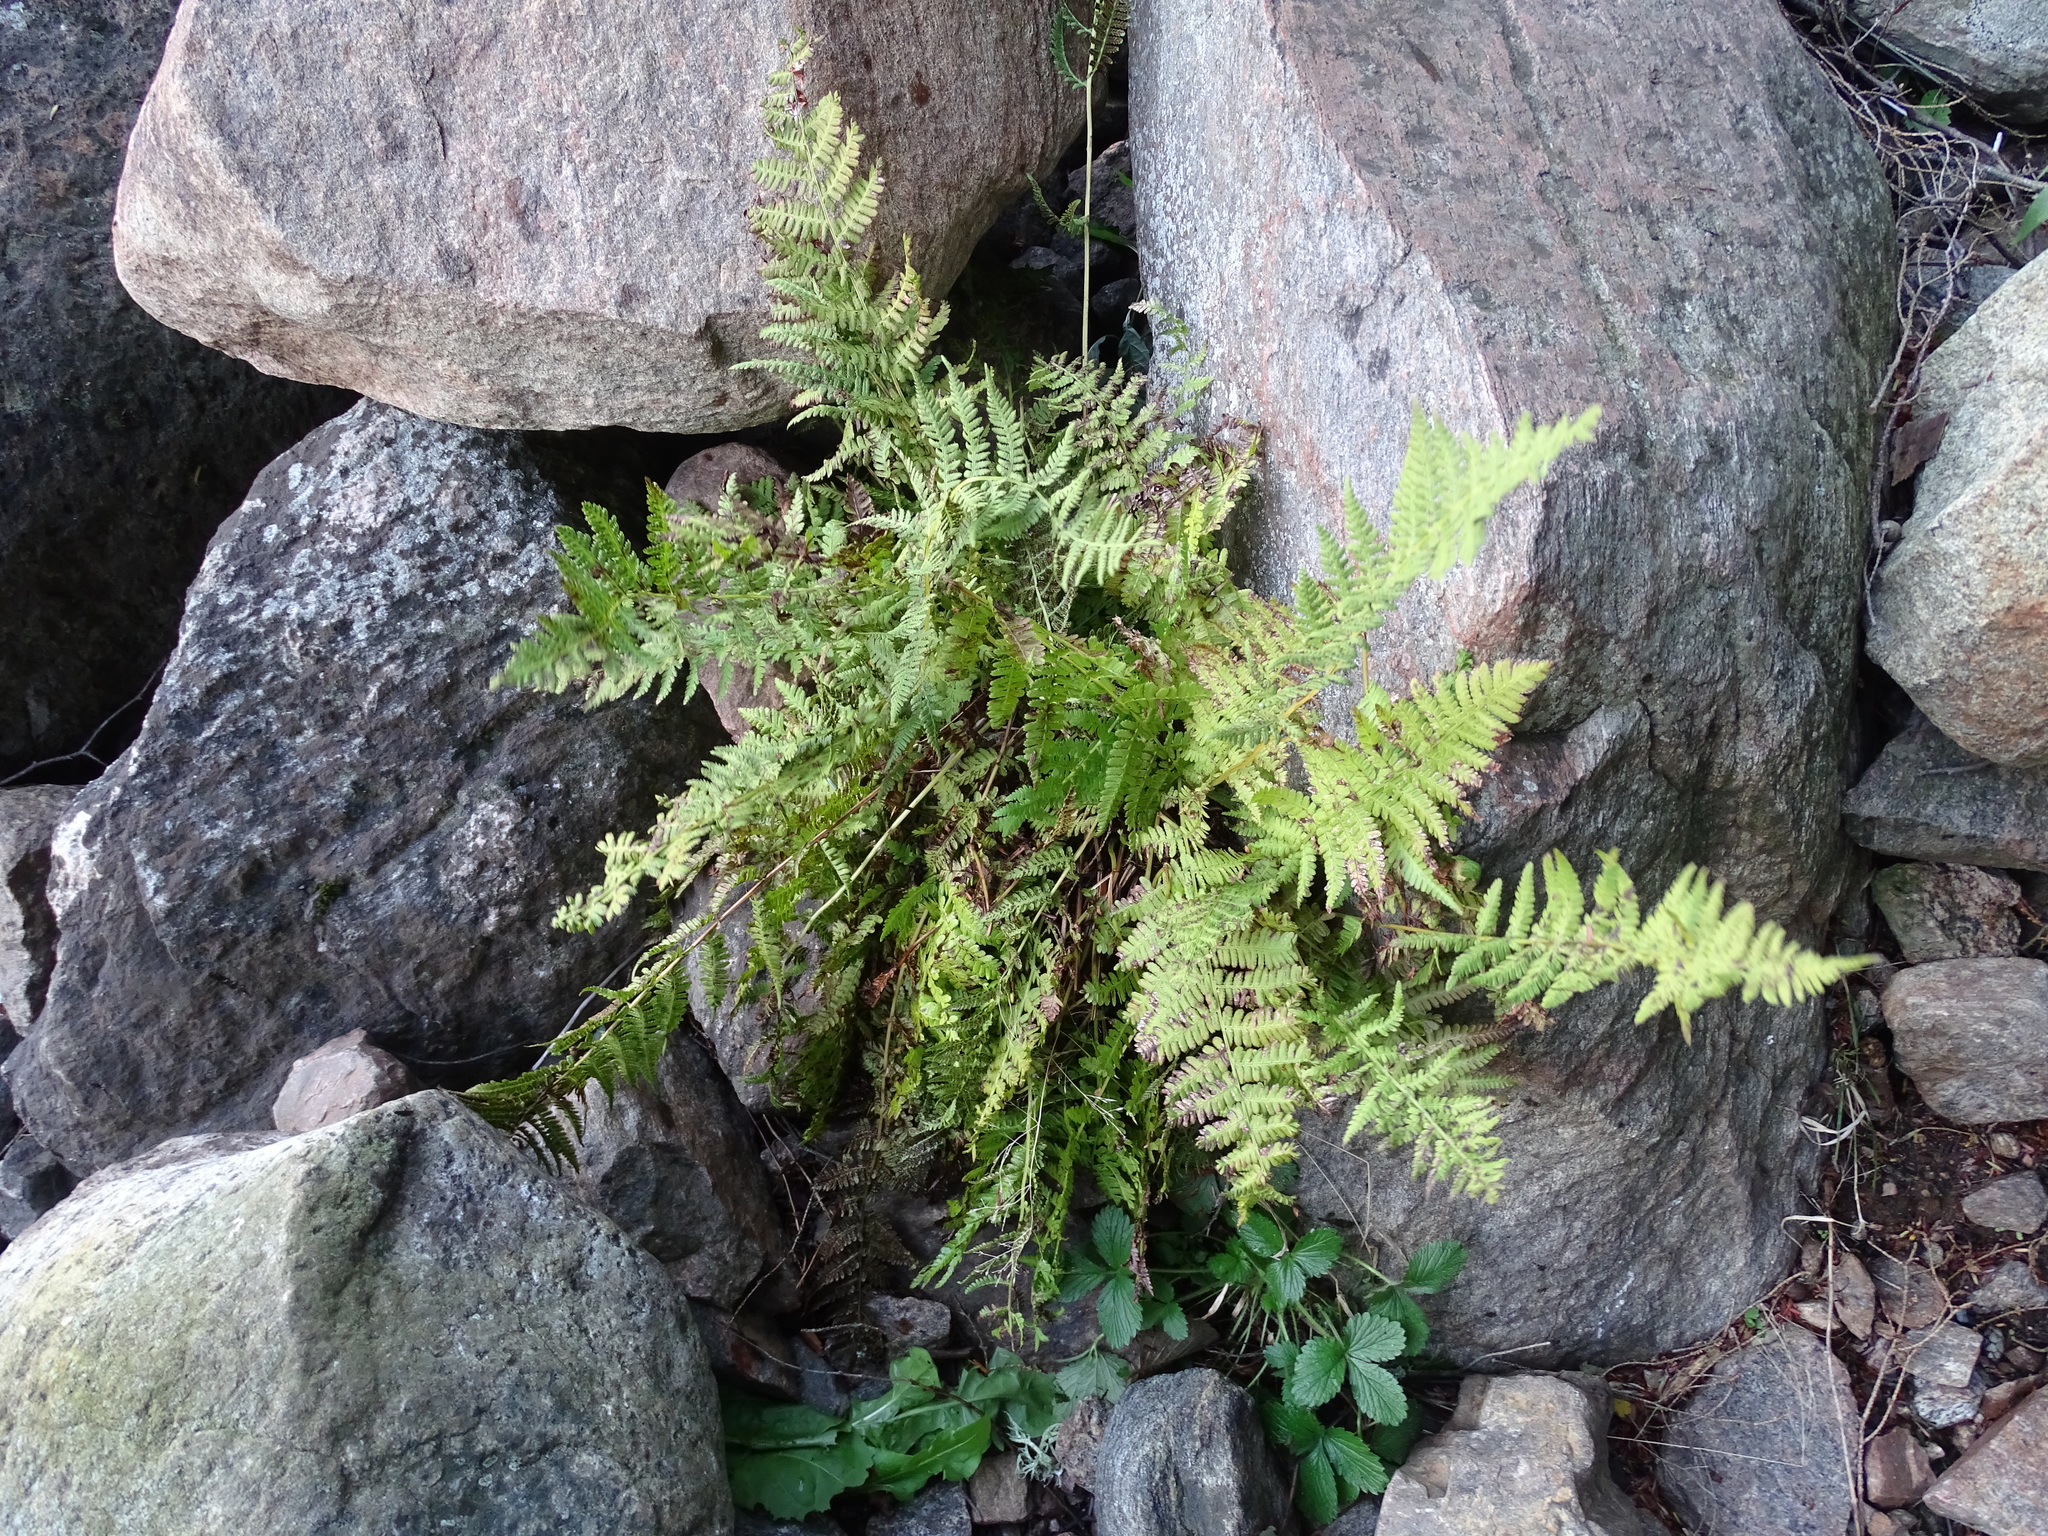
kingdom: Plantae
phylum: Tracheophyta
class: Polypodiopsida
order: Polypodiales
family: Dryopteridaceae
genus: Dryopteris
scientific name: Dryopteris marginalis
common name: Marginal wood fern
